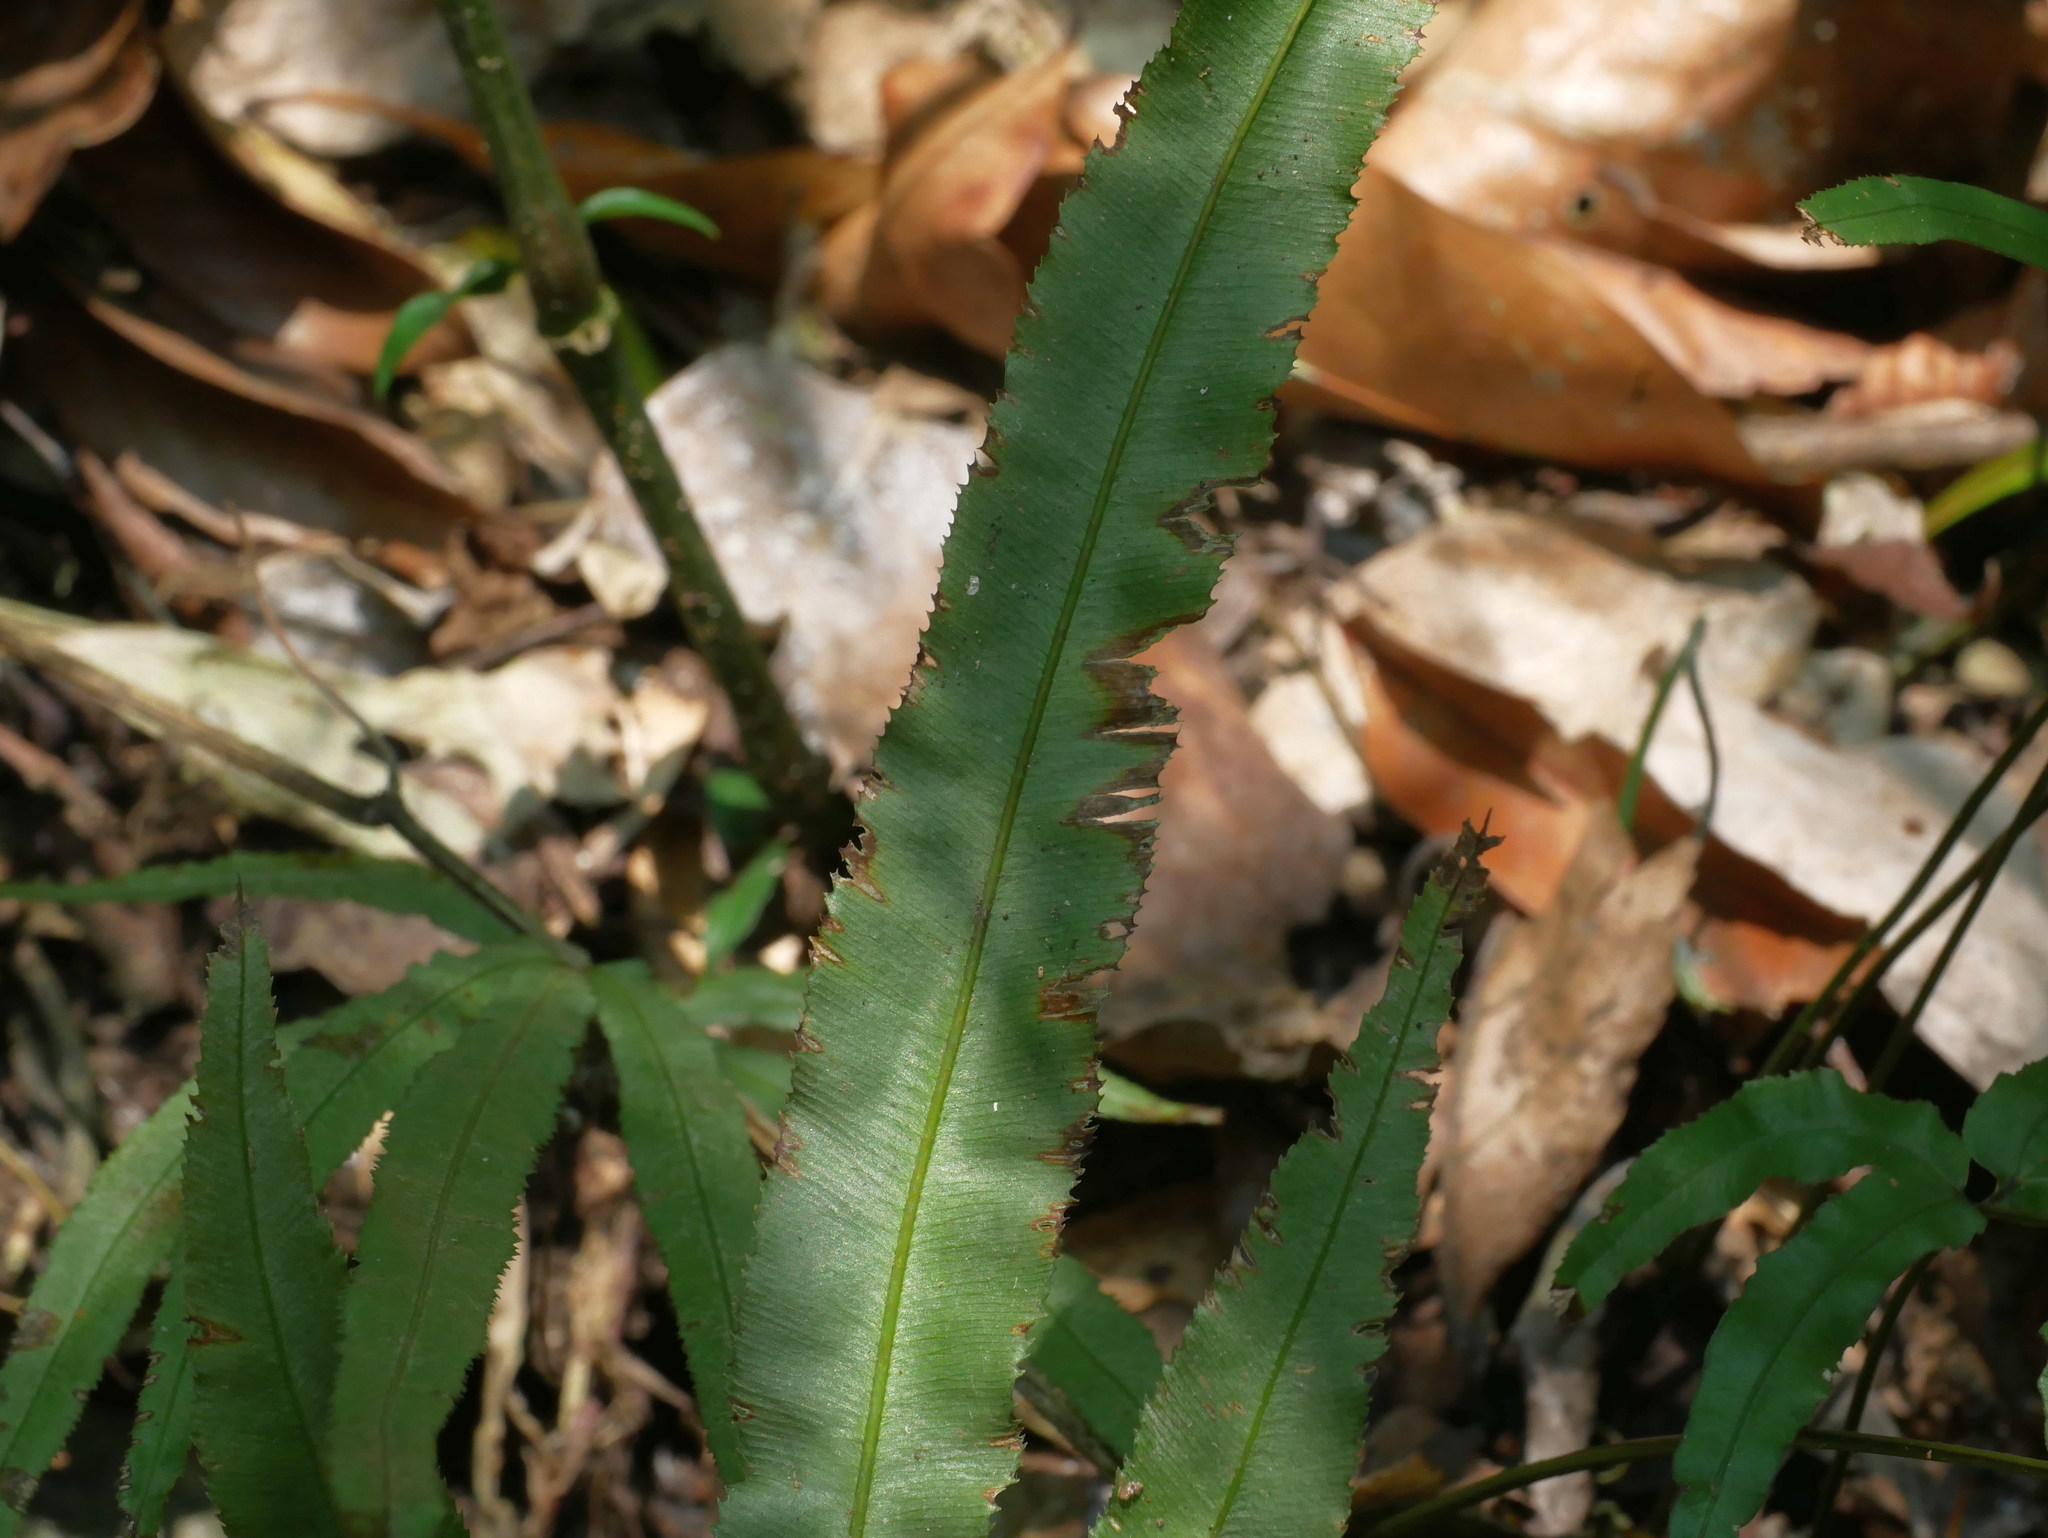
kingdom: Plantae
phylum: Tracheophyta
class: Polypodiopsida
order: Polypodiales
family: Pteridaceae
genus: Pteris
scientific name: Pteris kidoi
